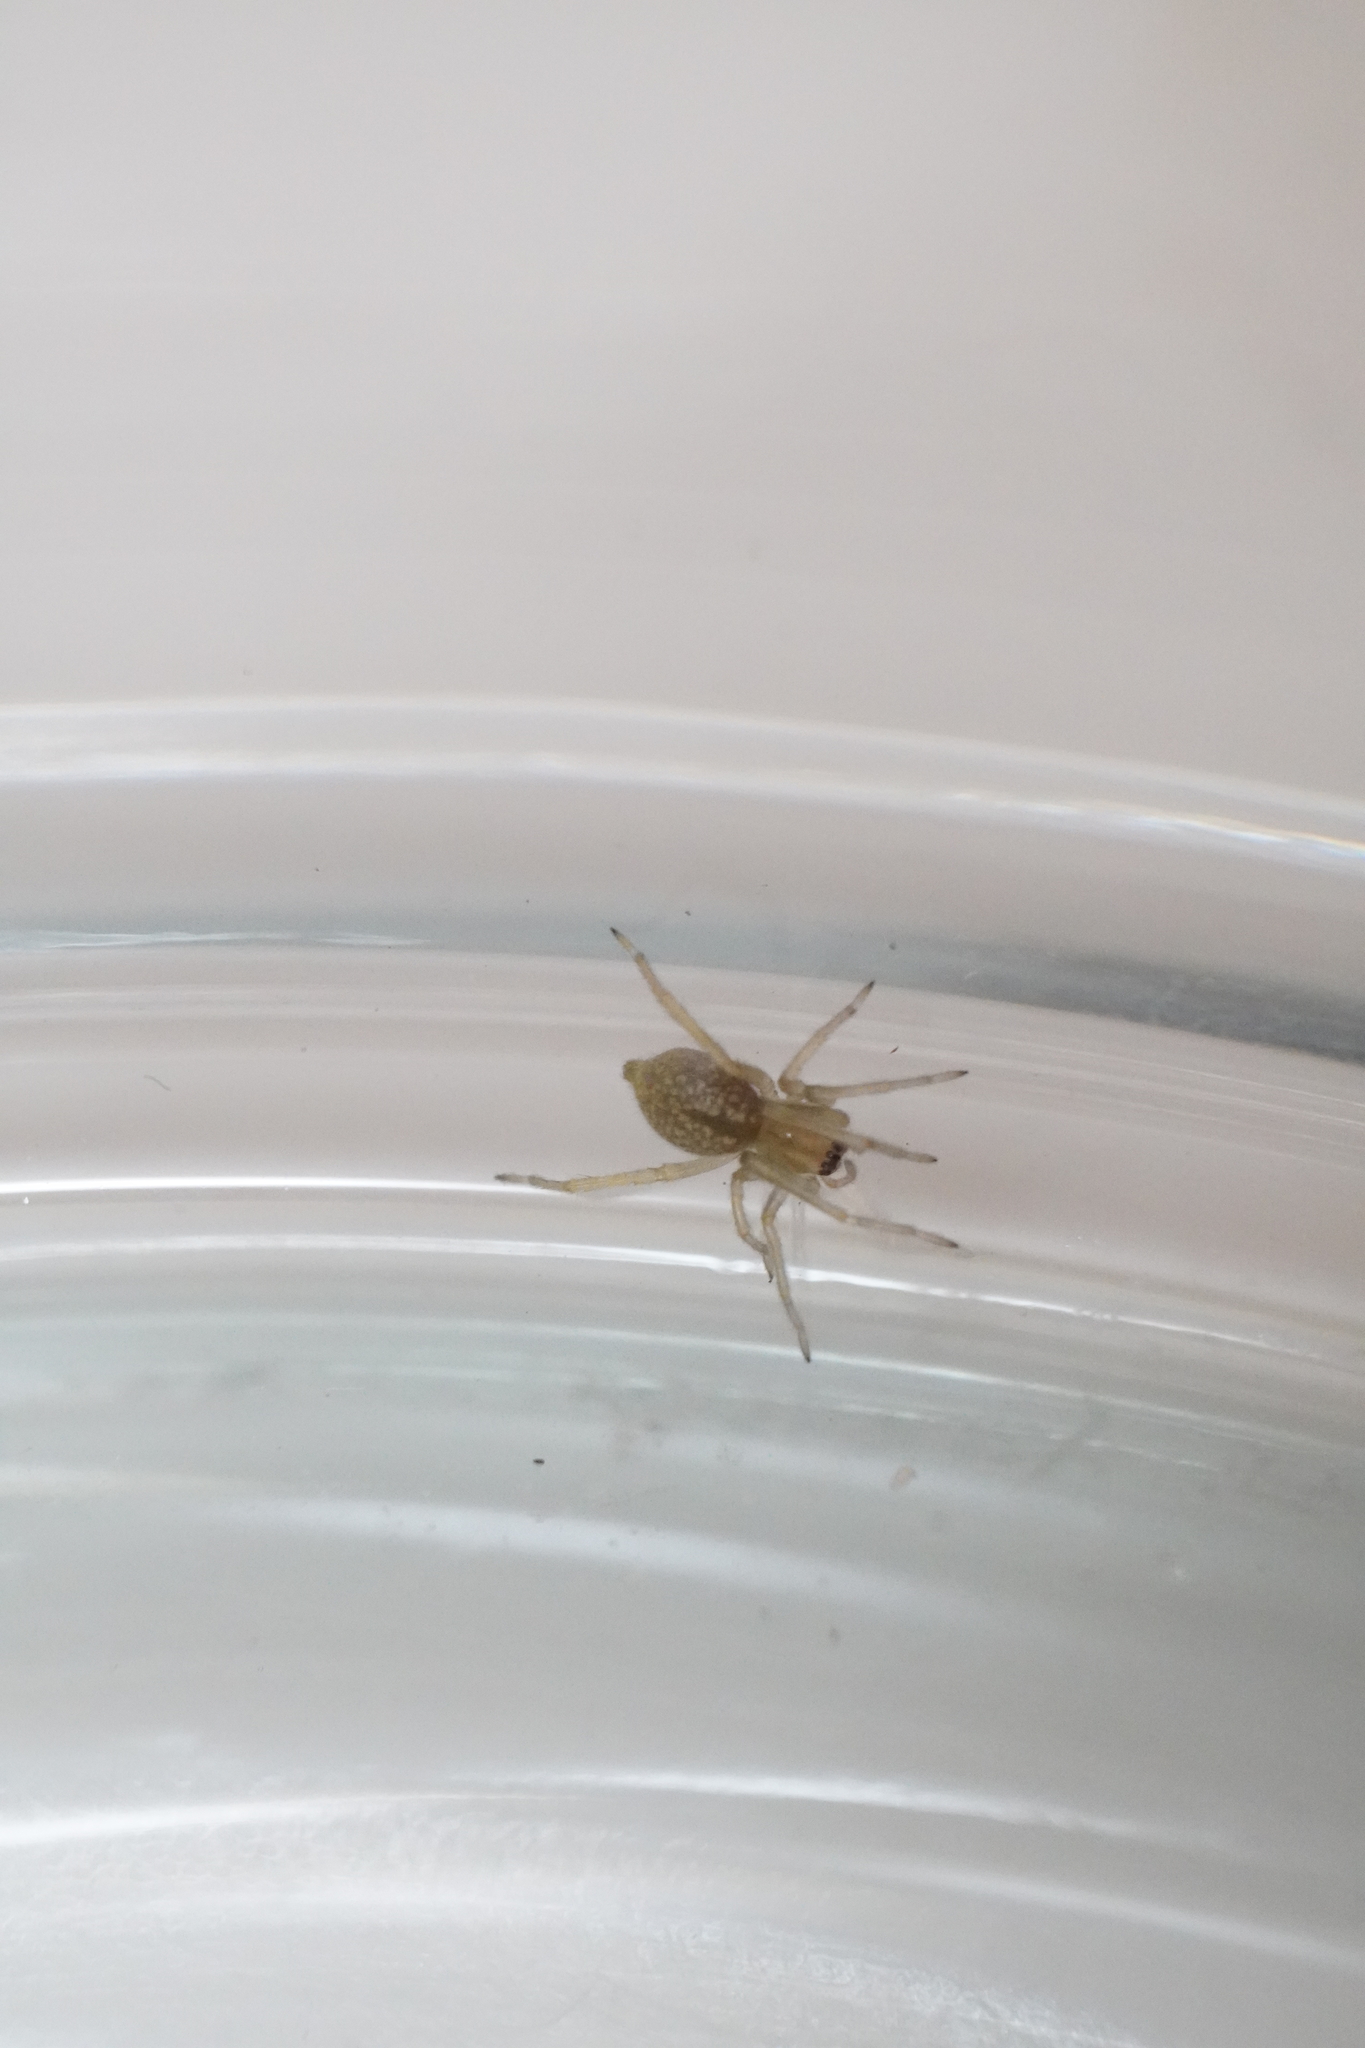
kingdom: Animalia
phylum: Arthropoda
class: Arachnida
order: Araneae
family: Cheiracanthiidae
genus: Cheiracanthium
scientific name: Cheiracanthium
